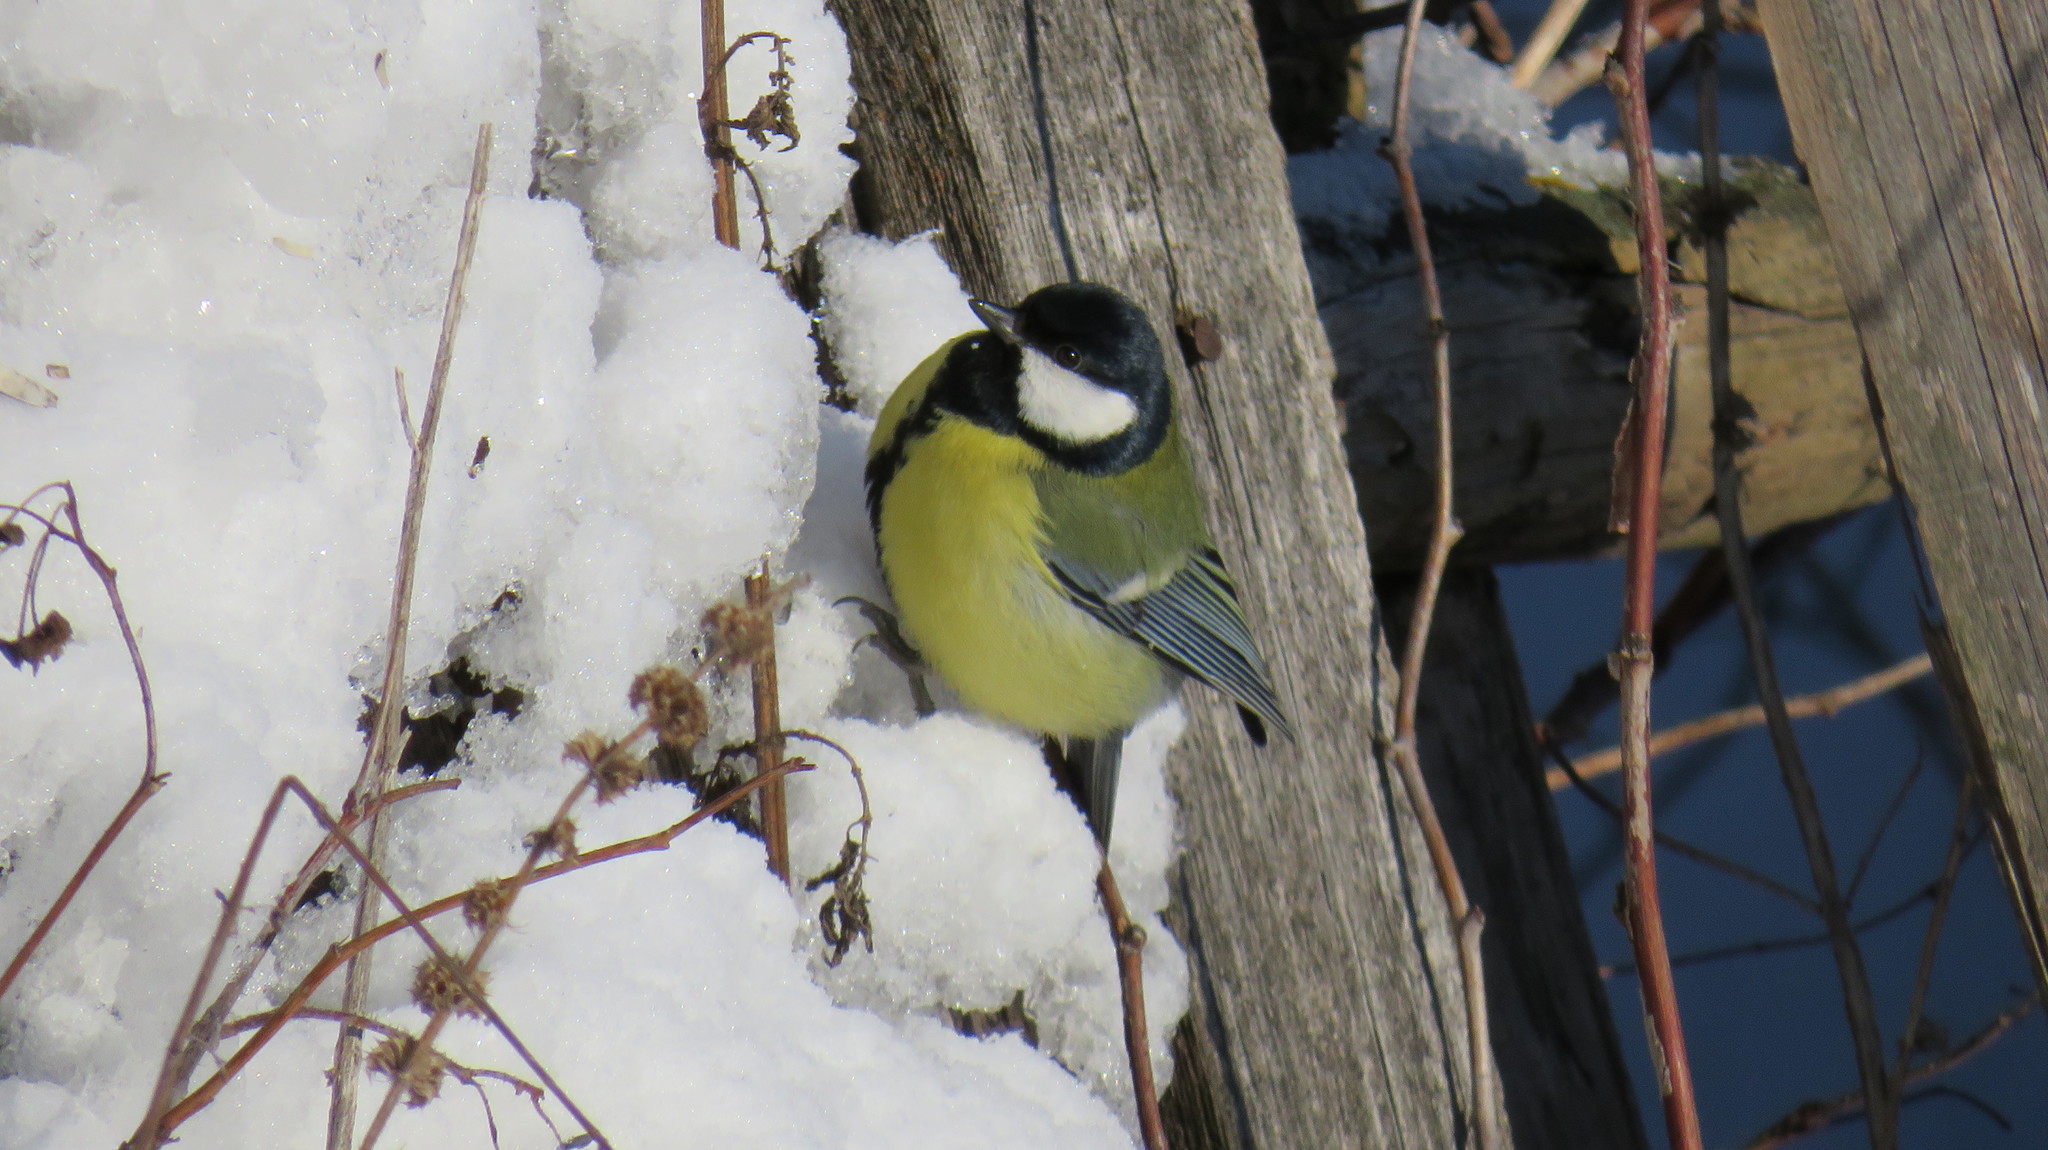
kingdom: Animalia
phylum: Chordata
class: Aves
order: Passeriformes
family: Paridae
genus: Parus
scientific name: Parus major
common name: Great tit
